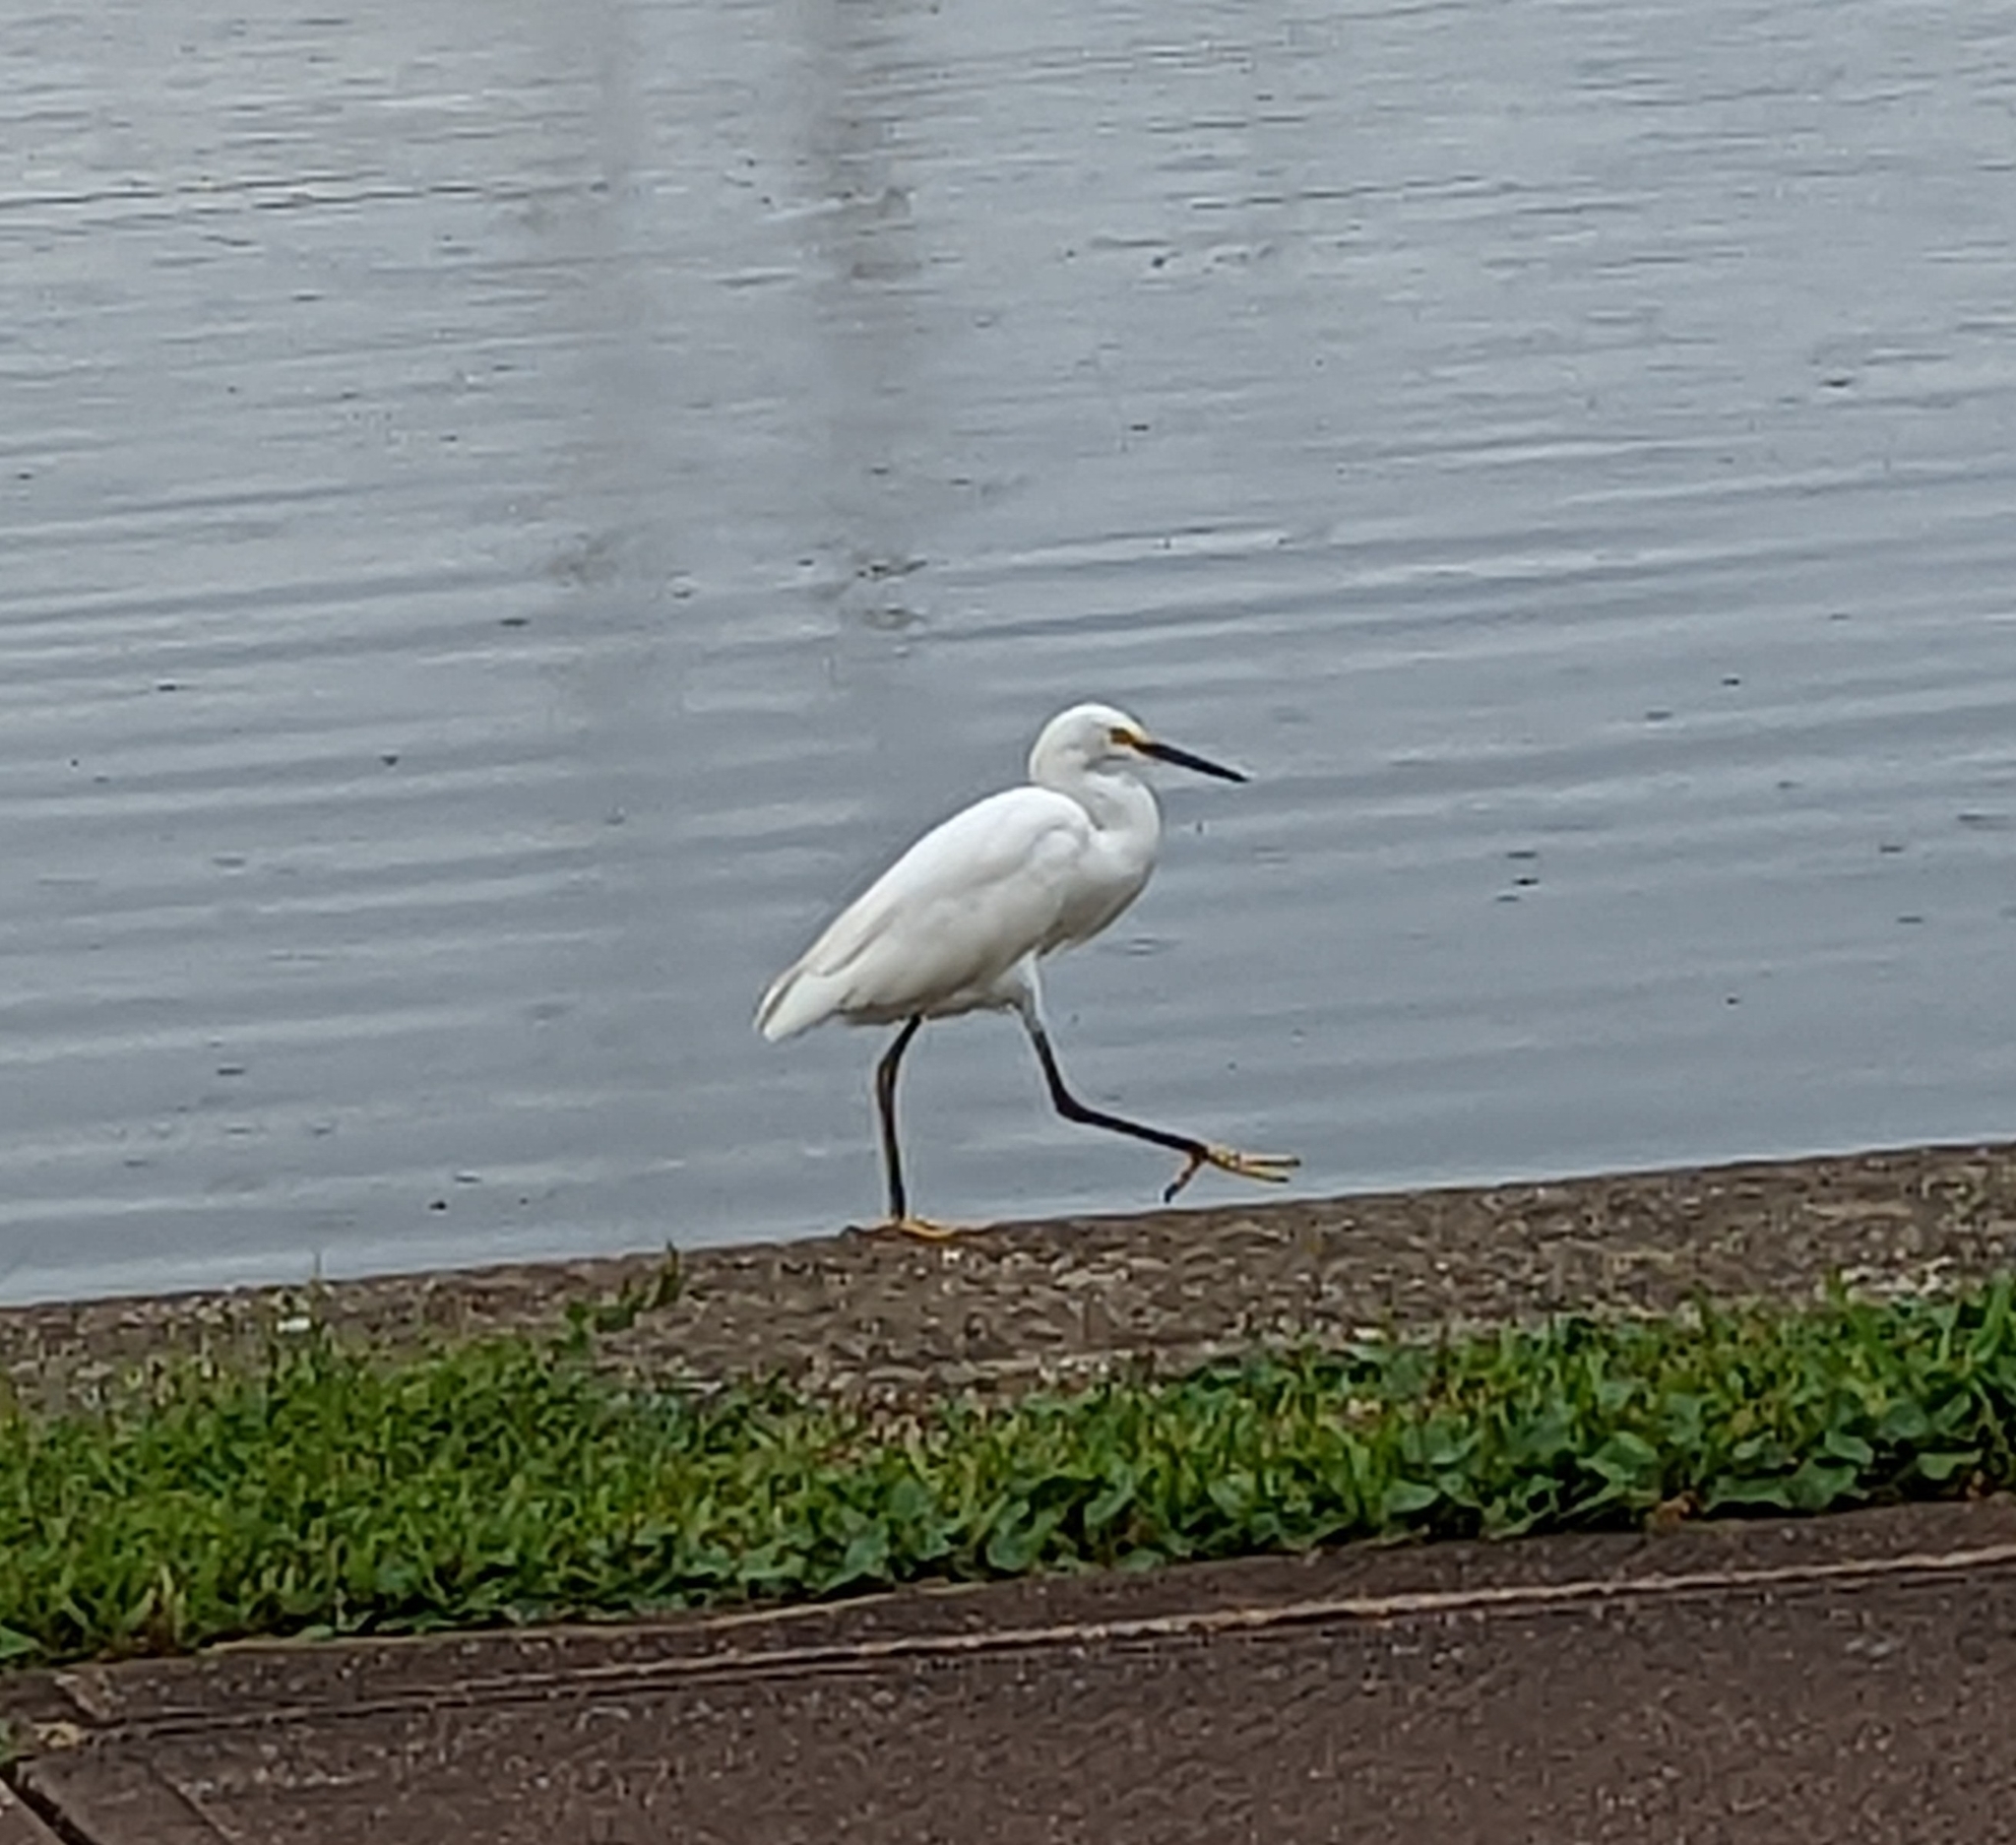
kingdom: Animalia
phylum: Chordata
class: Aves
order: Pelecaniformes
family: Ardeidae
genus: Egretta
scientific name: Egretta thula
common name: Snowy egret
